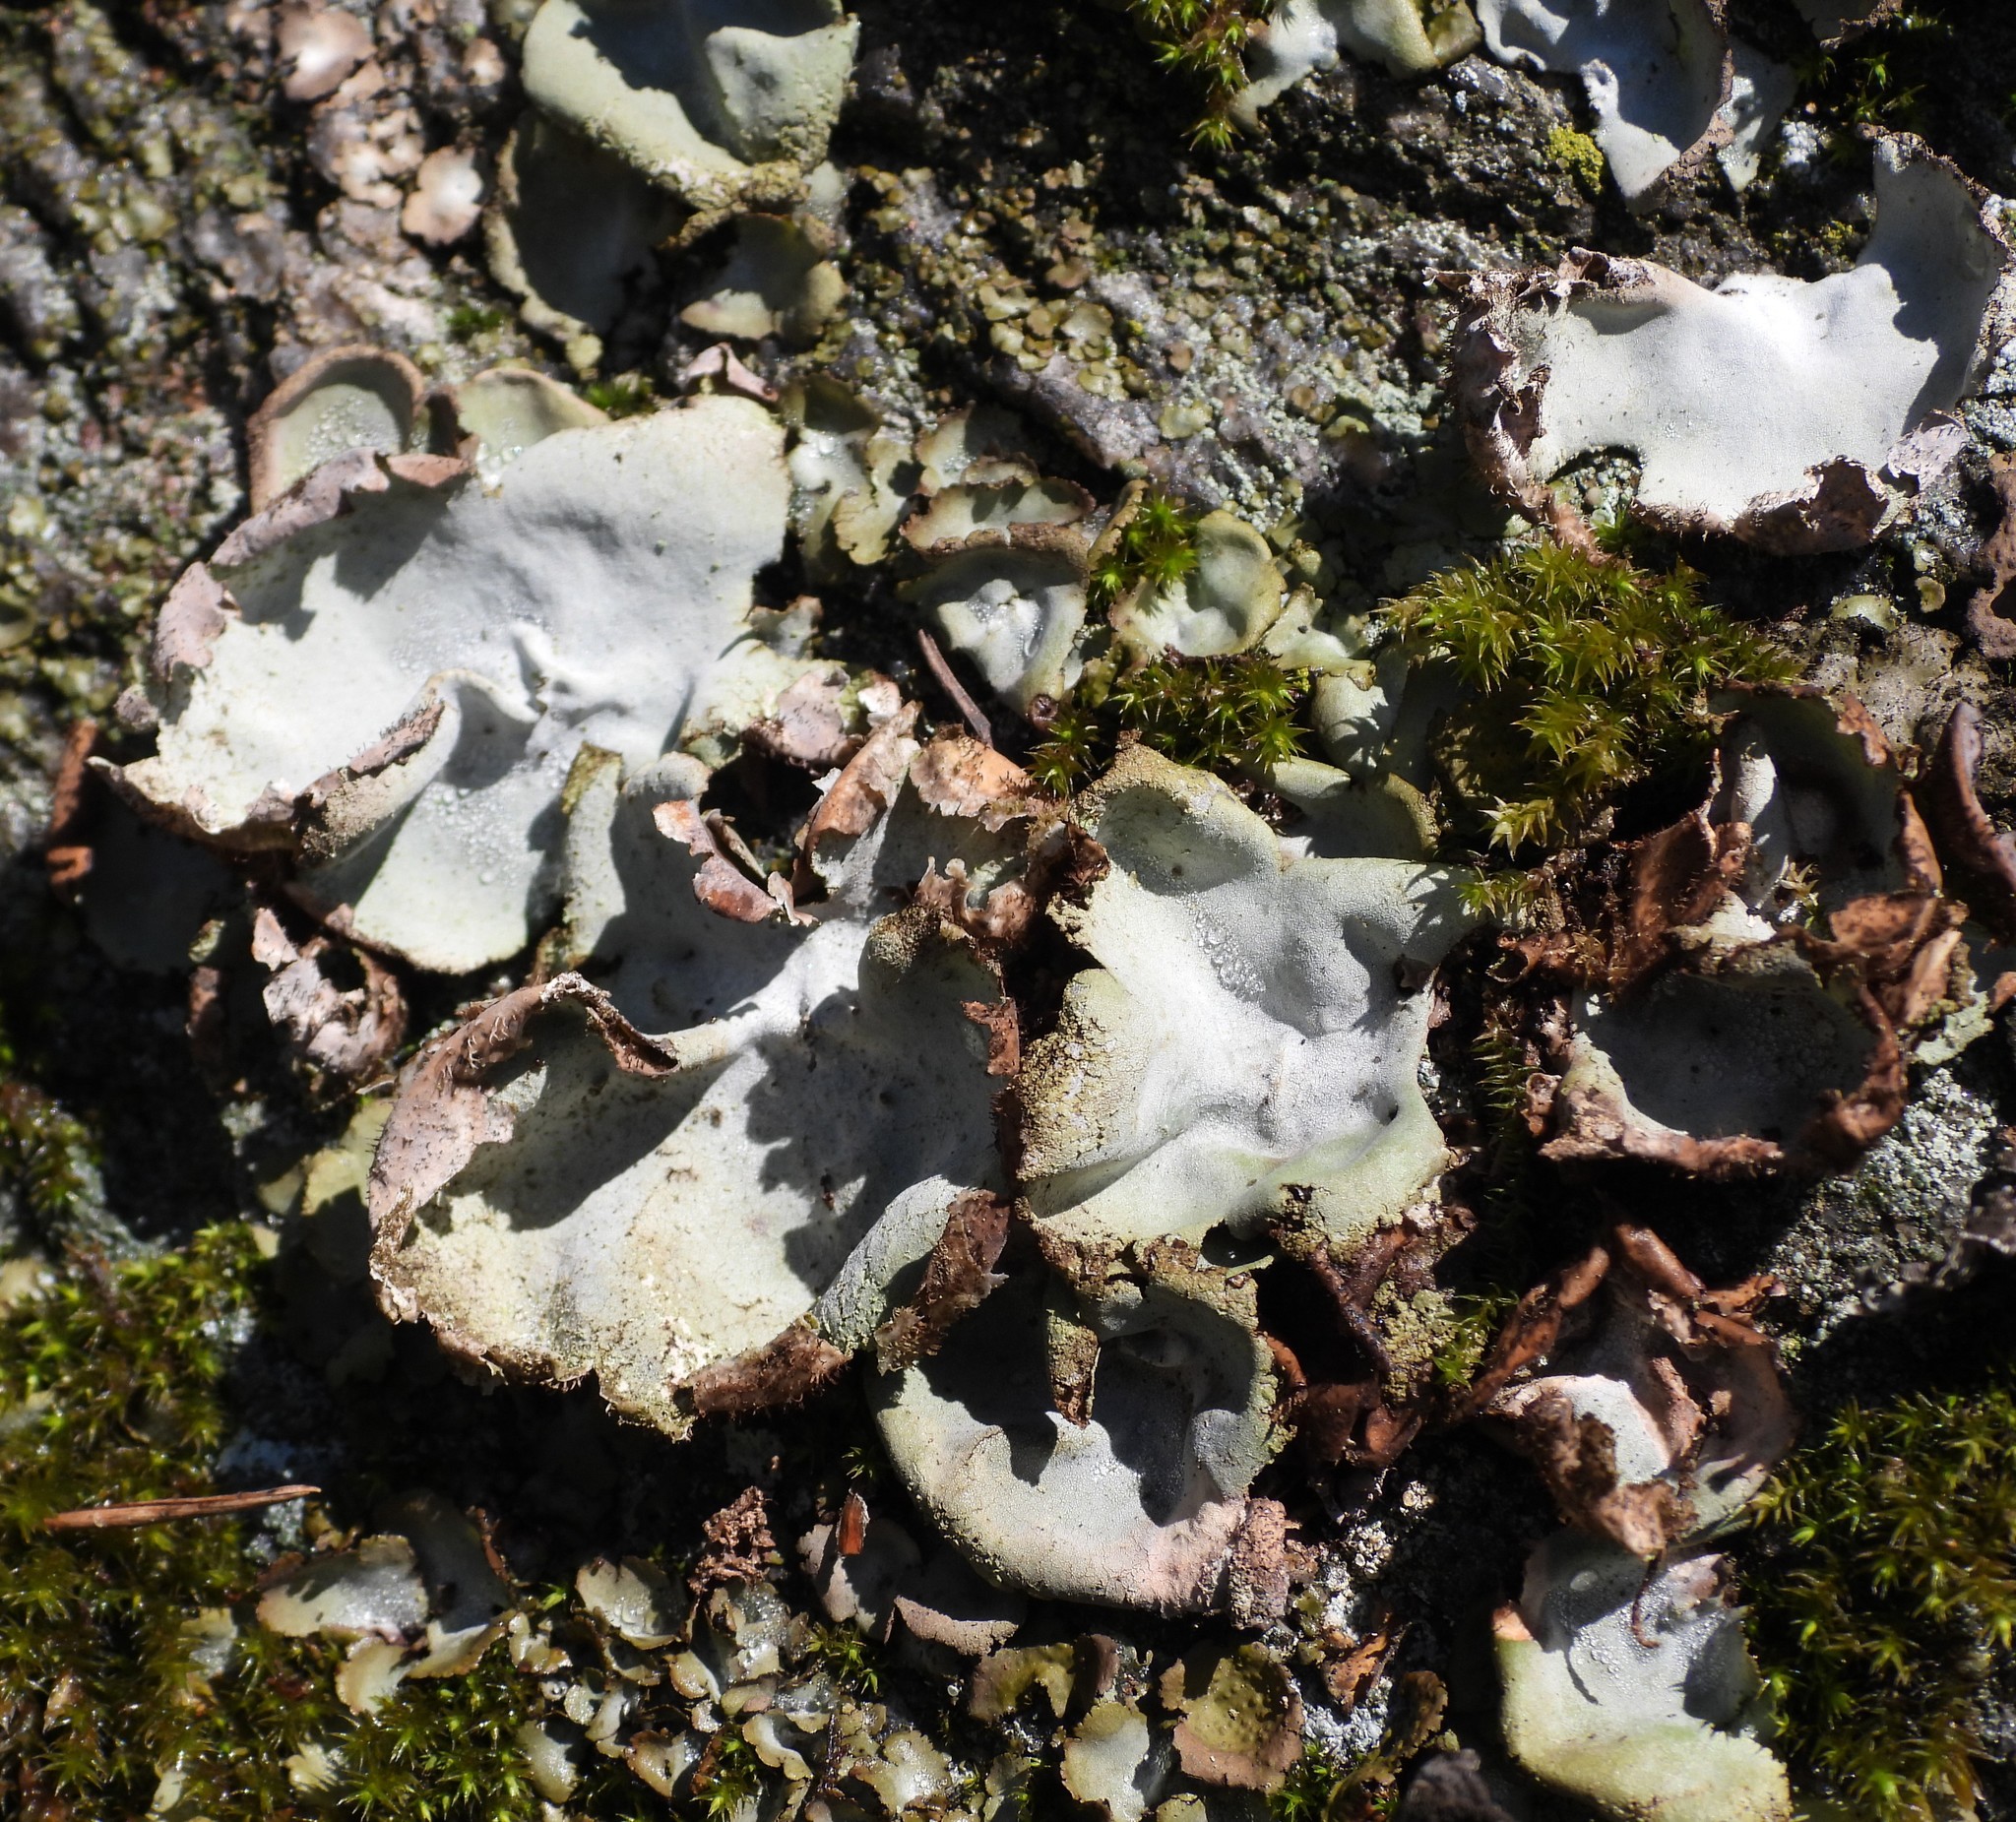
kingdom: Fungi
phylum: Ascomycota
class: Lecanoromycetes
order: Umbilicariales
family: Umbilicariaceae
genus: Umbilicaria
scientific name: Umbilicaria hirsuta
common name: Granulating rocktripe lichen
